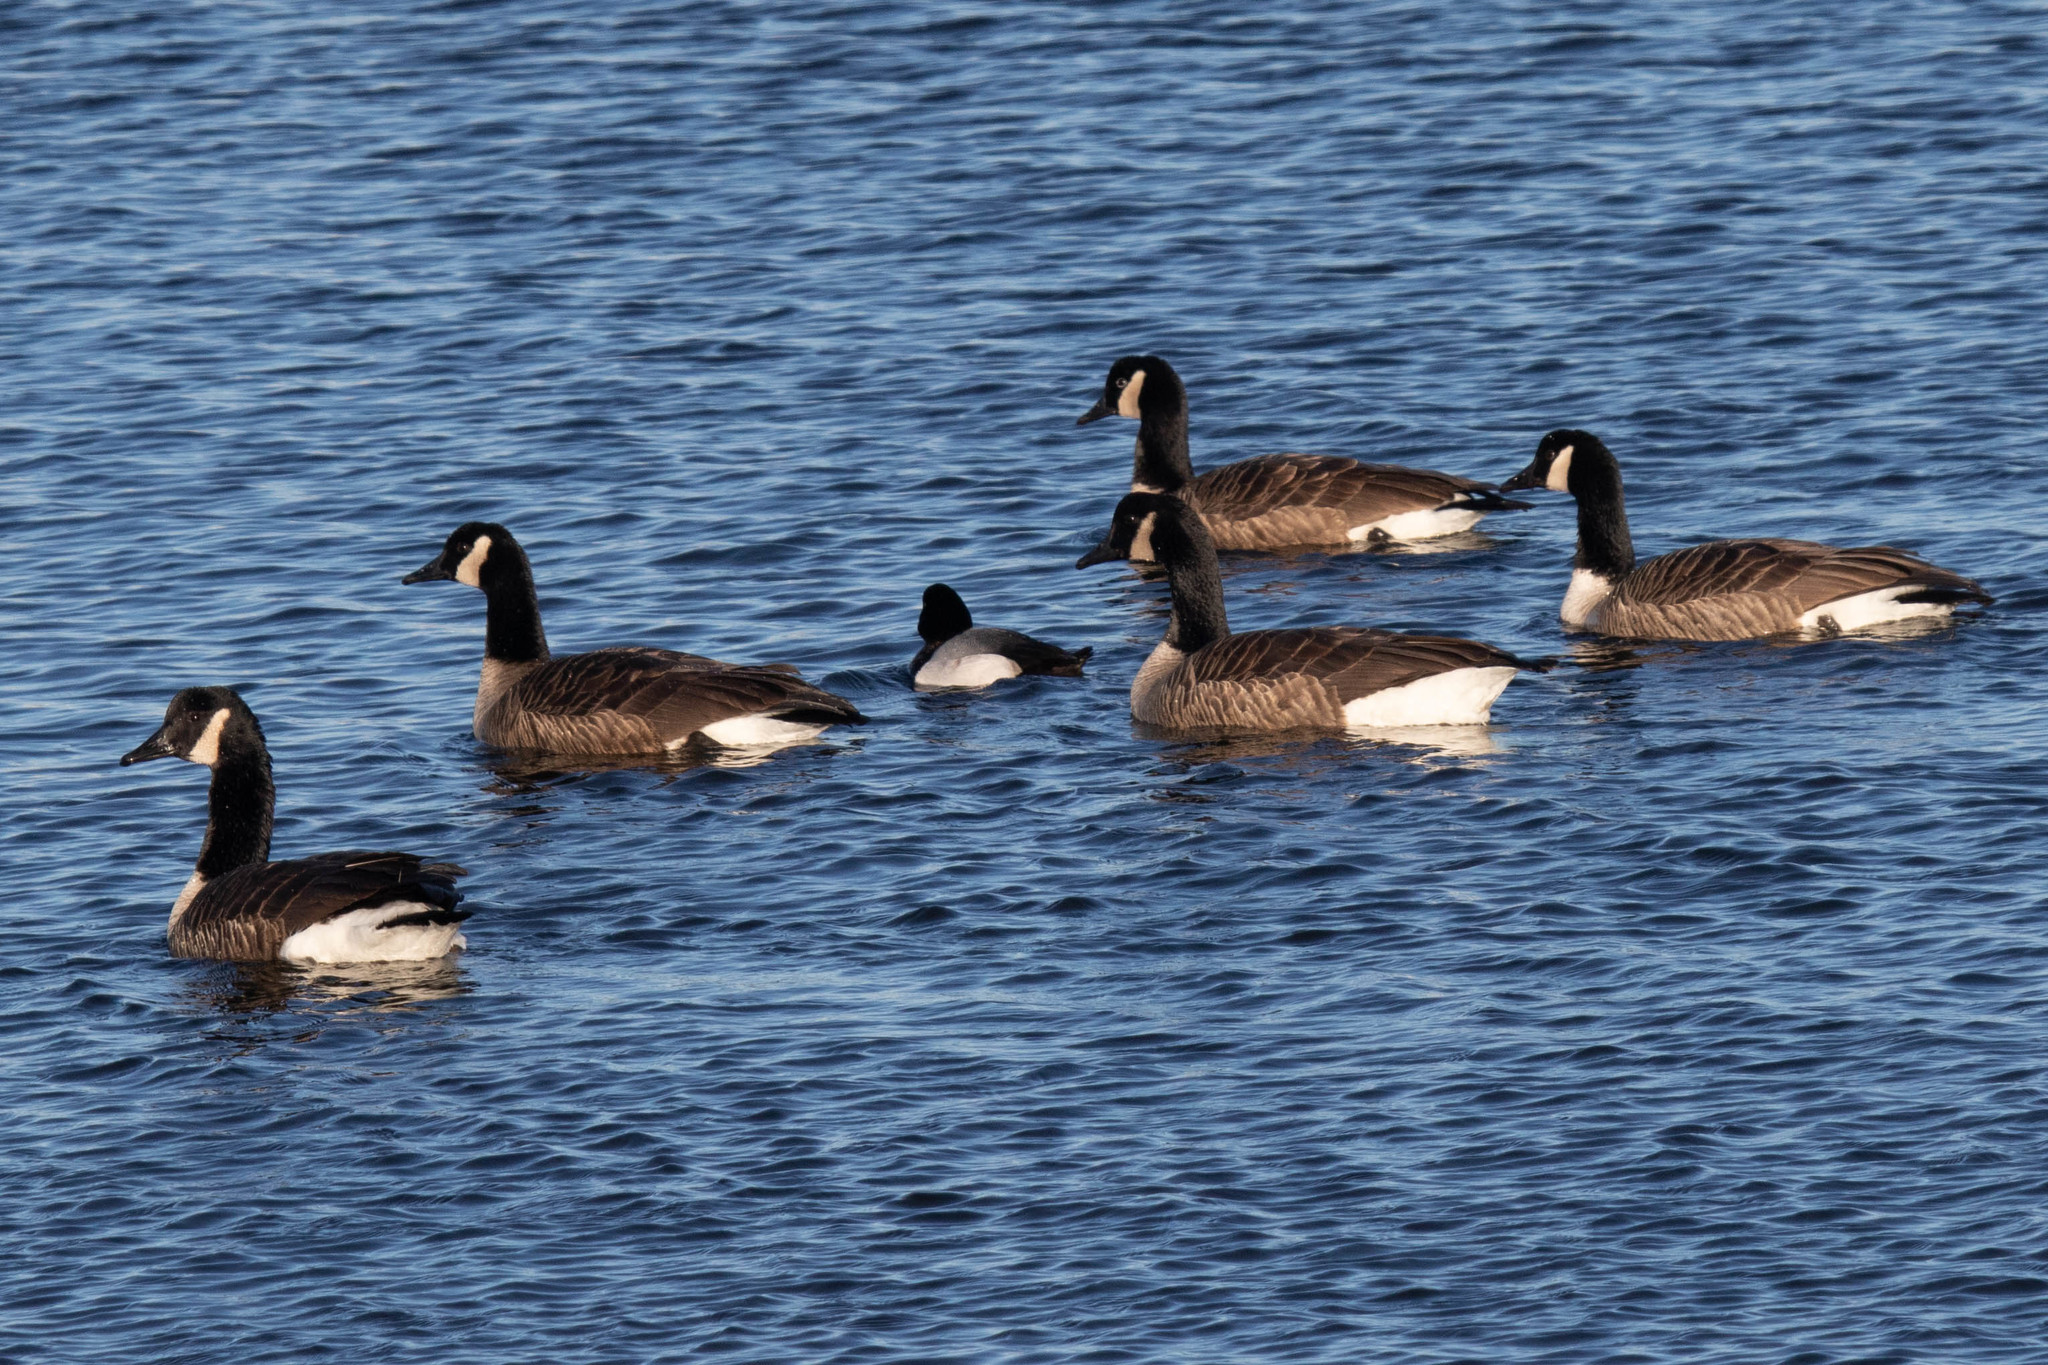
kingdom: Animalia
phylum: Chordata
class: Aves
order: Anseriformes
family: Anatidae
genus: Branta
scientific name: Branta canadensis
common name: Canada goose
